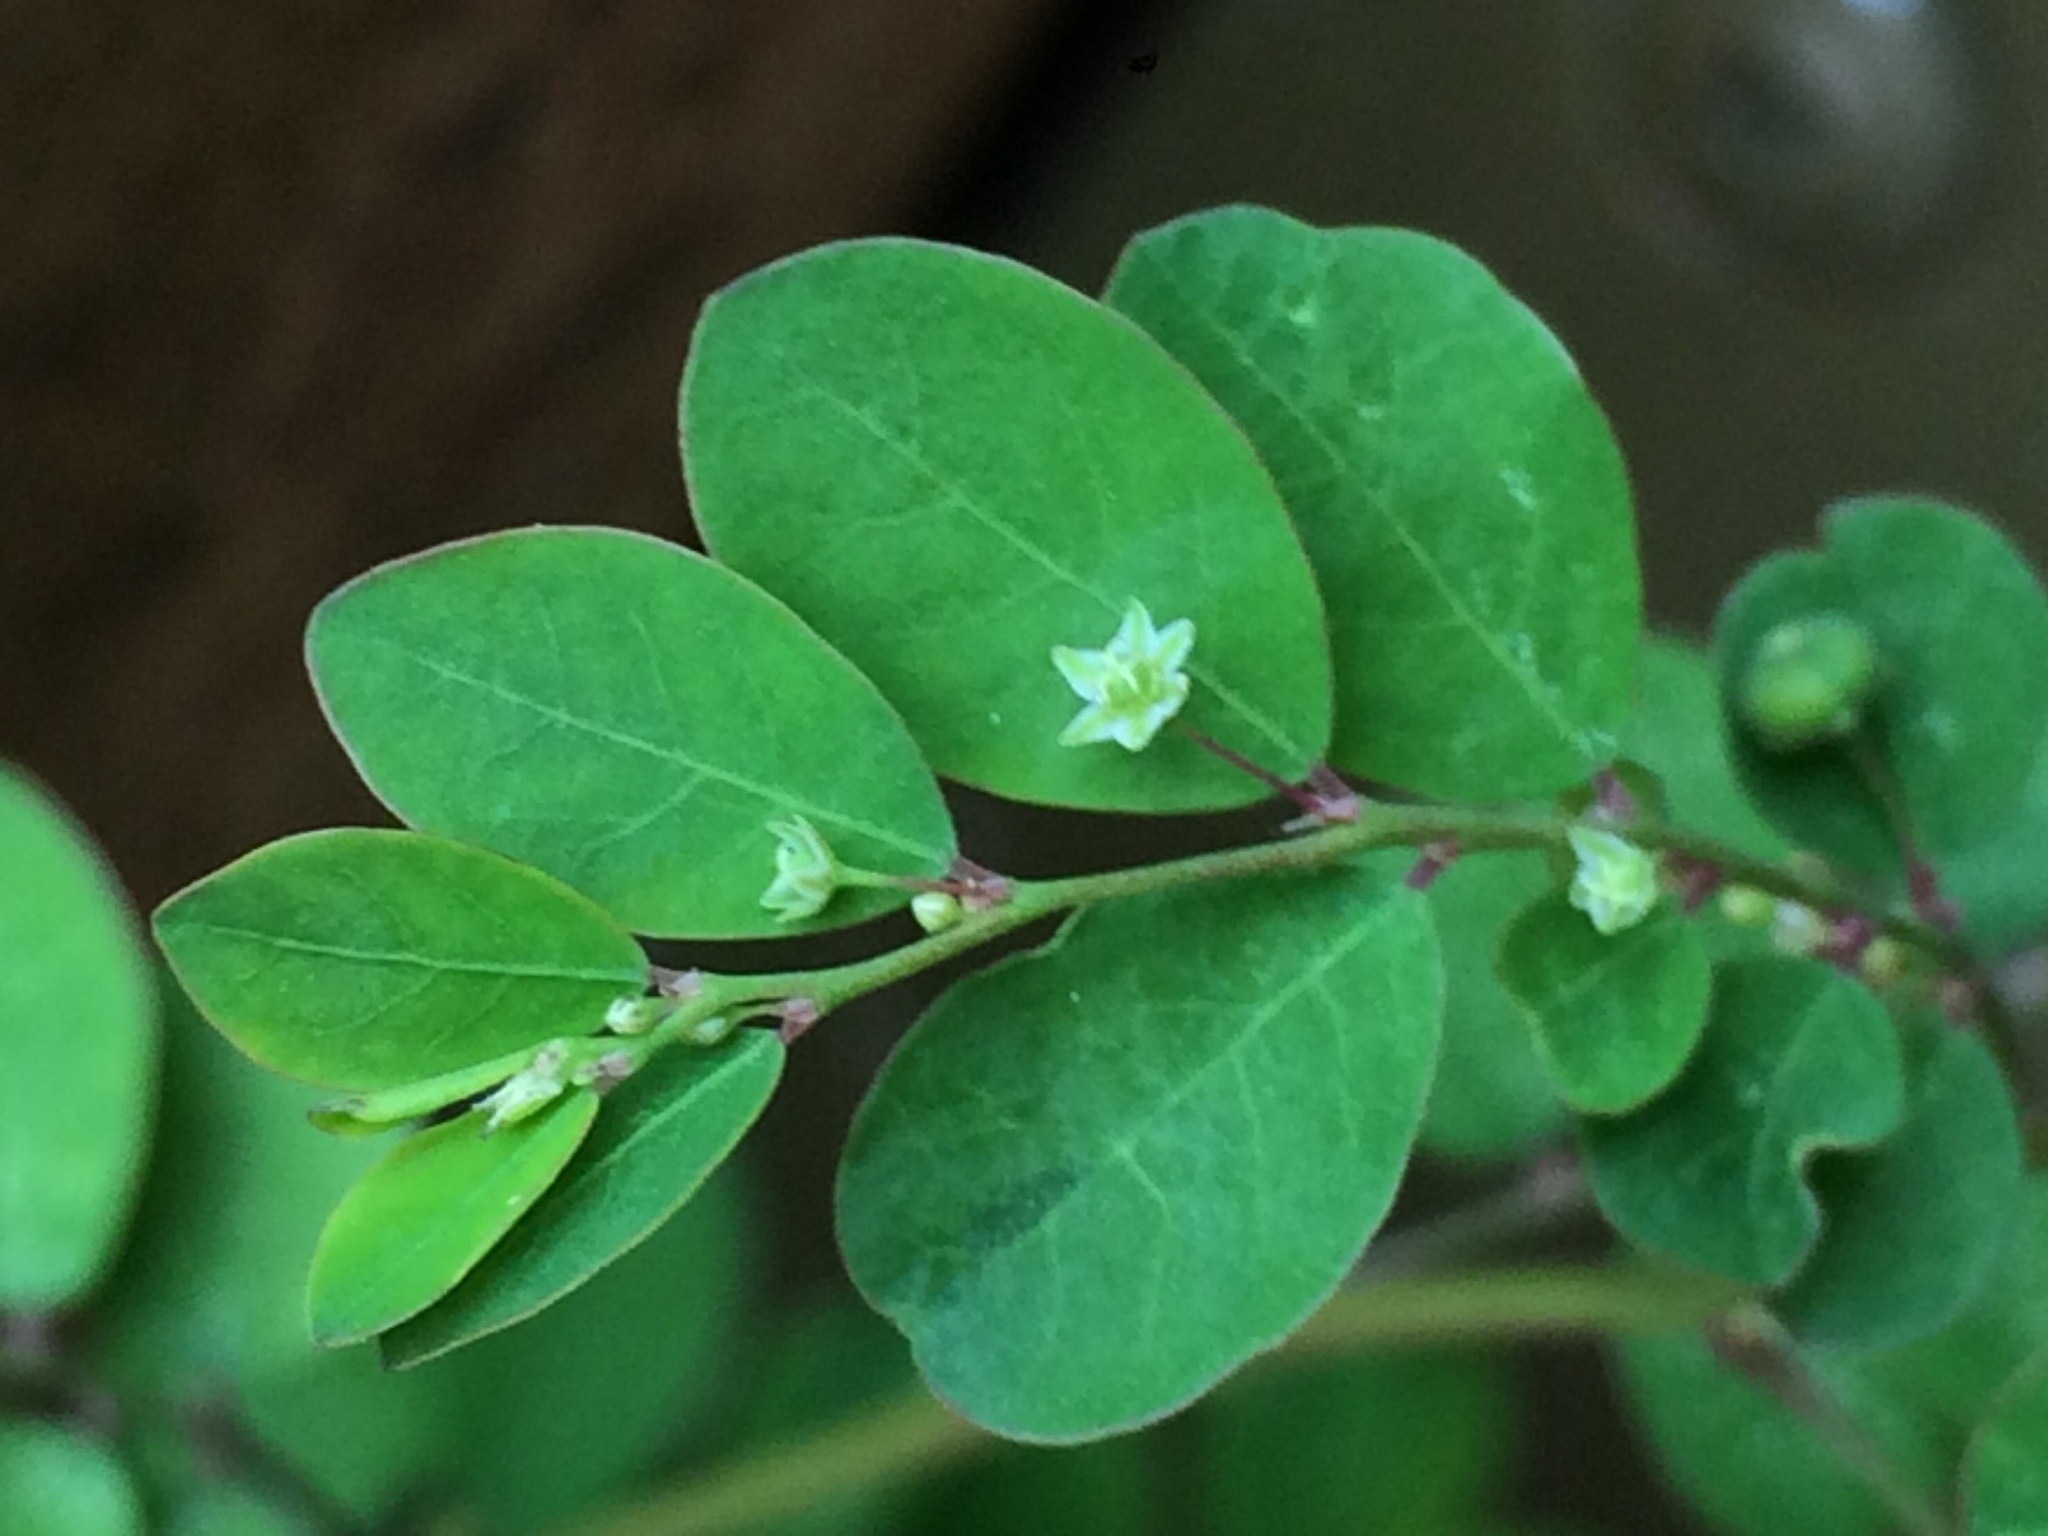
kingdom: Plantae
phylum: Tracheophyta
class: Magnoliopsida
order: Malpighiales
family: Phyllanthaceae
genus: Phyllanthus
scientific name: Phyllanthus tenellus
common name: Mascarene island leaf-flower
